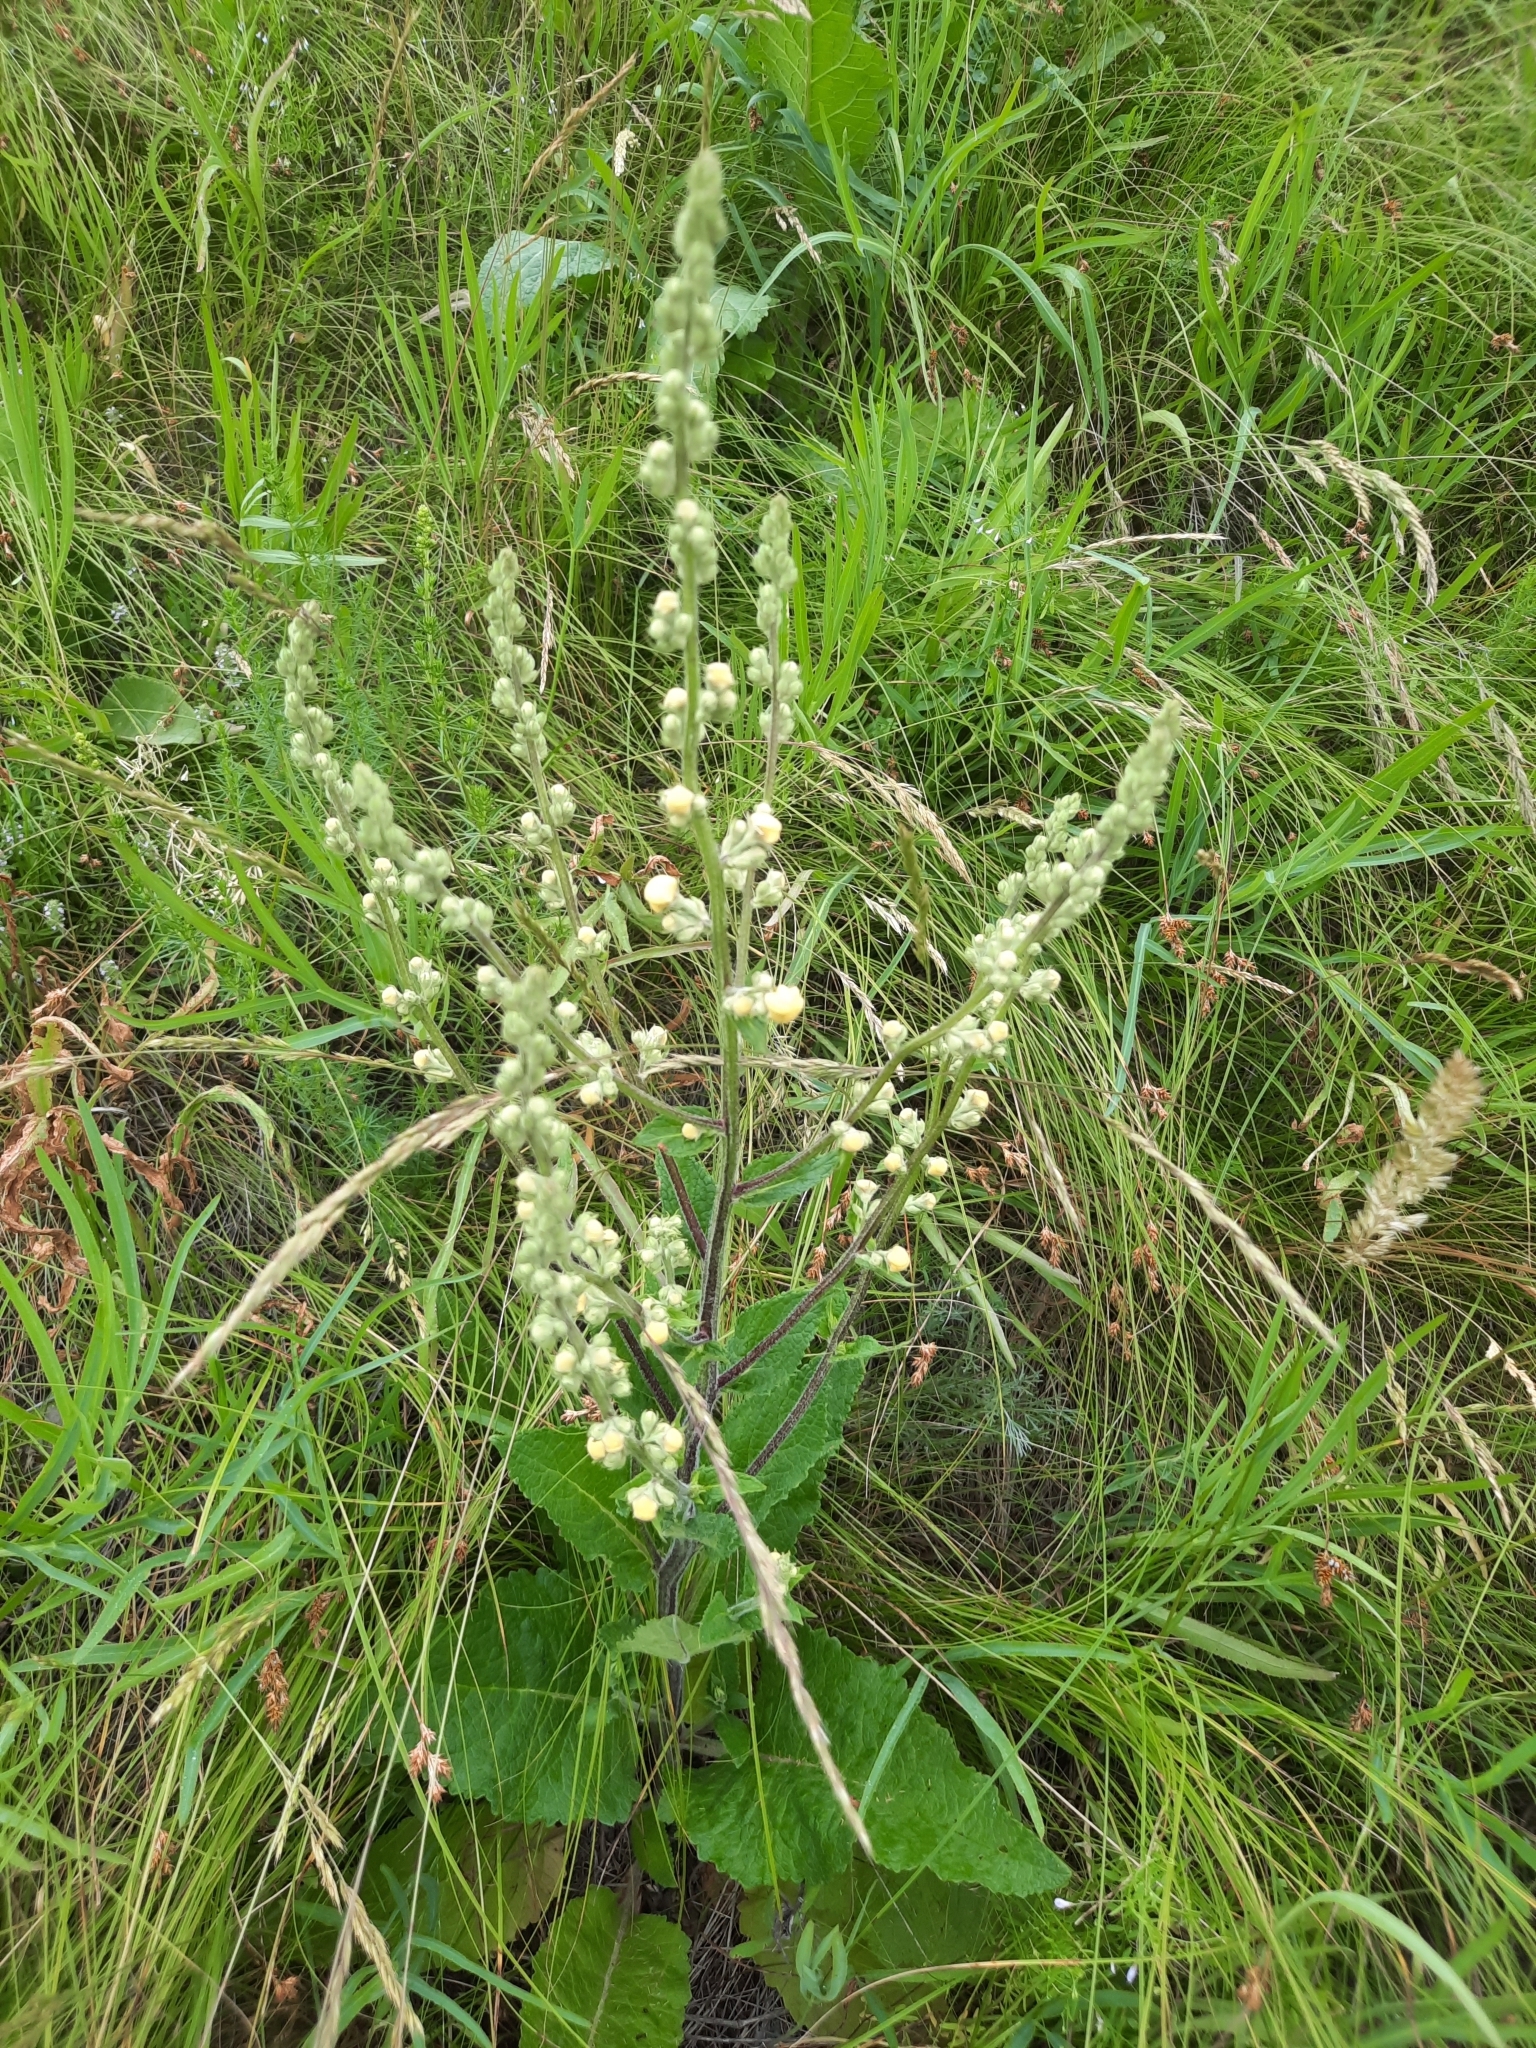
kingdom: Plantae
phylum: Tracheophyta
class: Magnoliopsida
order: Lamiales
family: Scrophulariaceae
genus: Verbascum
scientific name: Verbascum lychnitis
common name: White mullein
